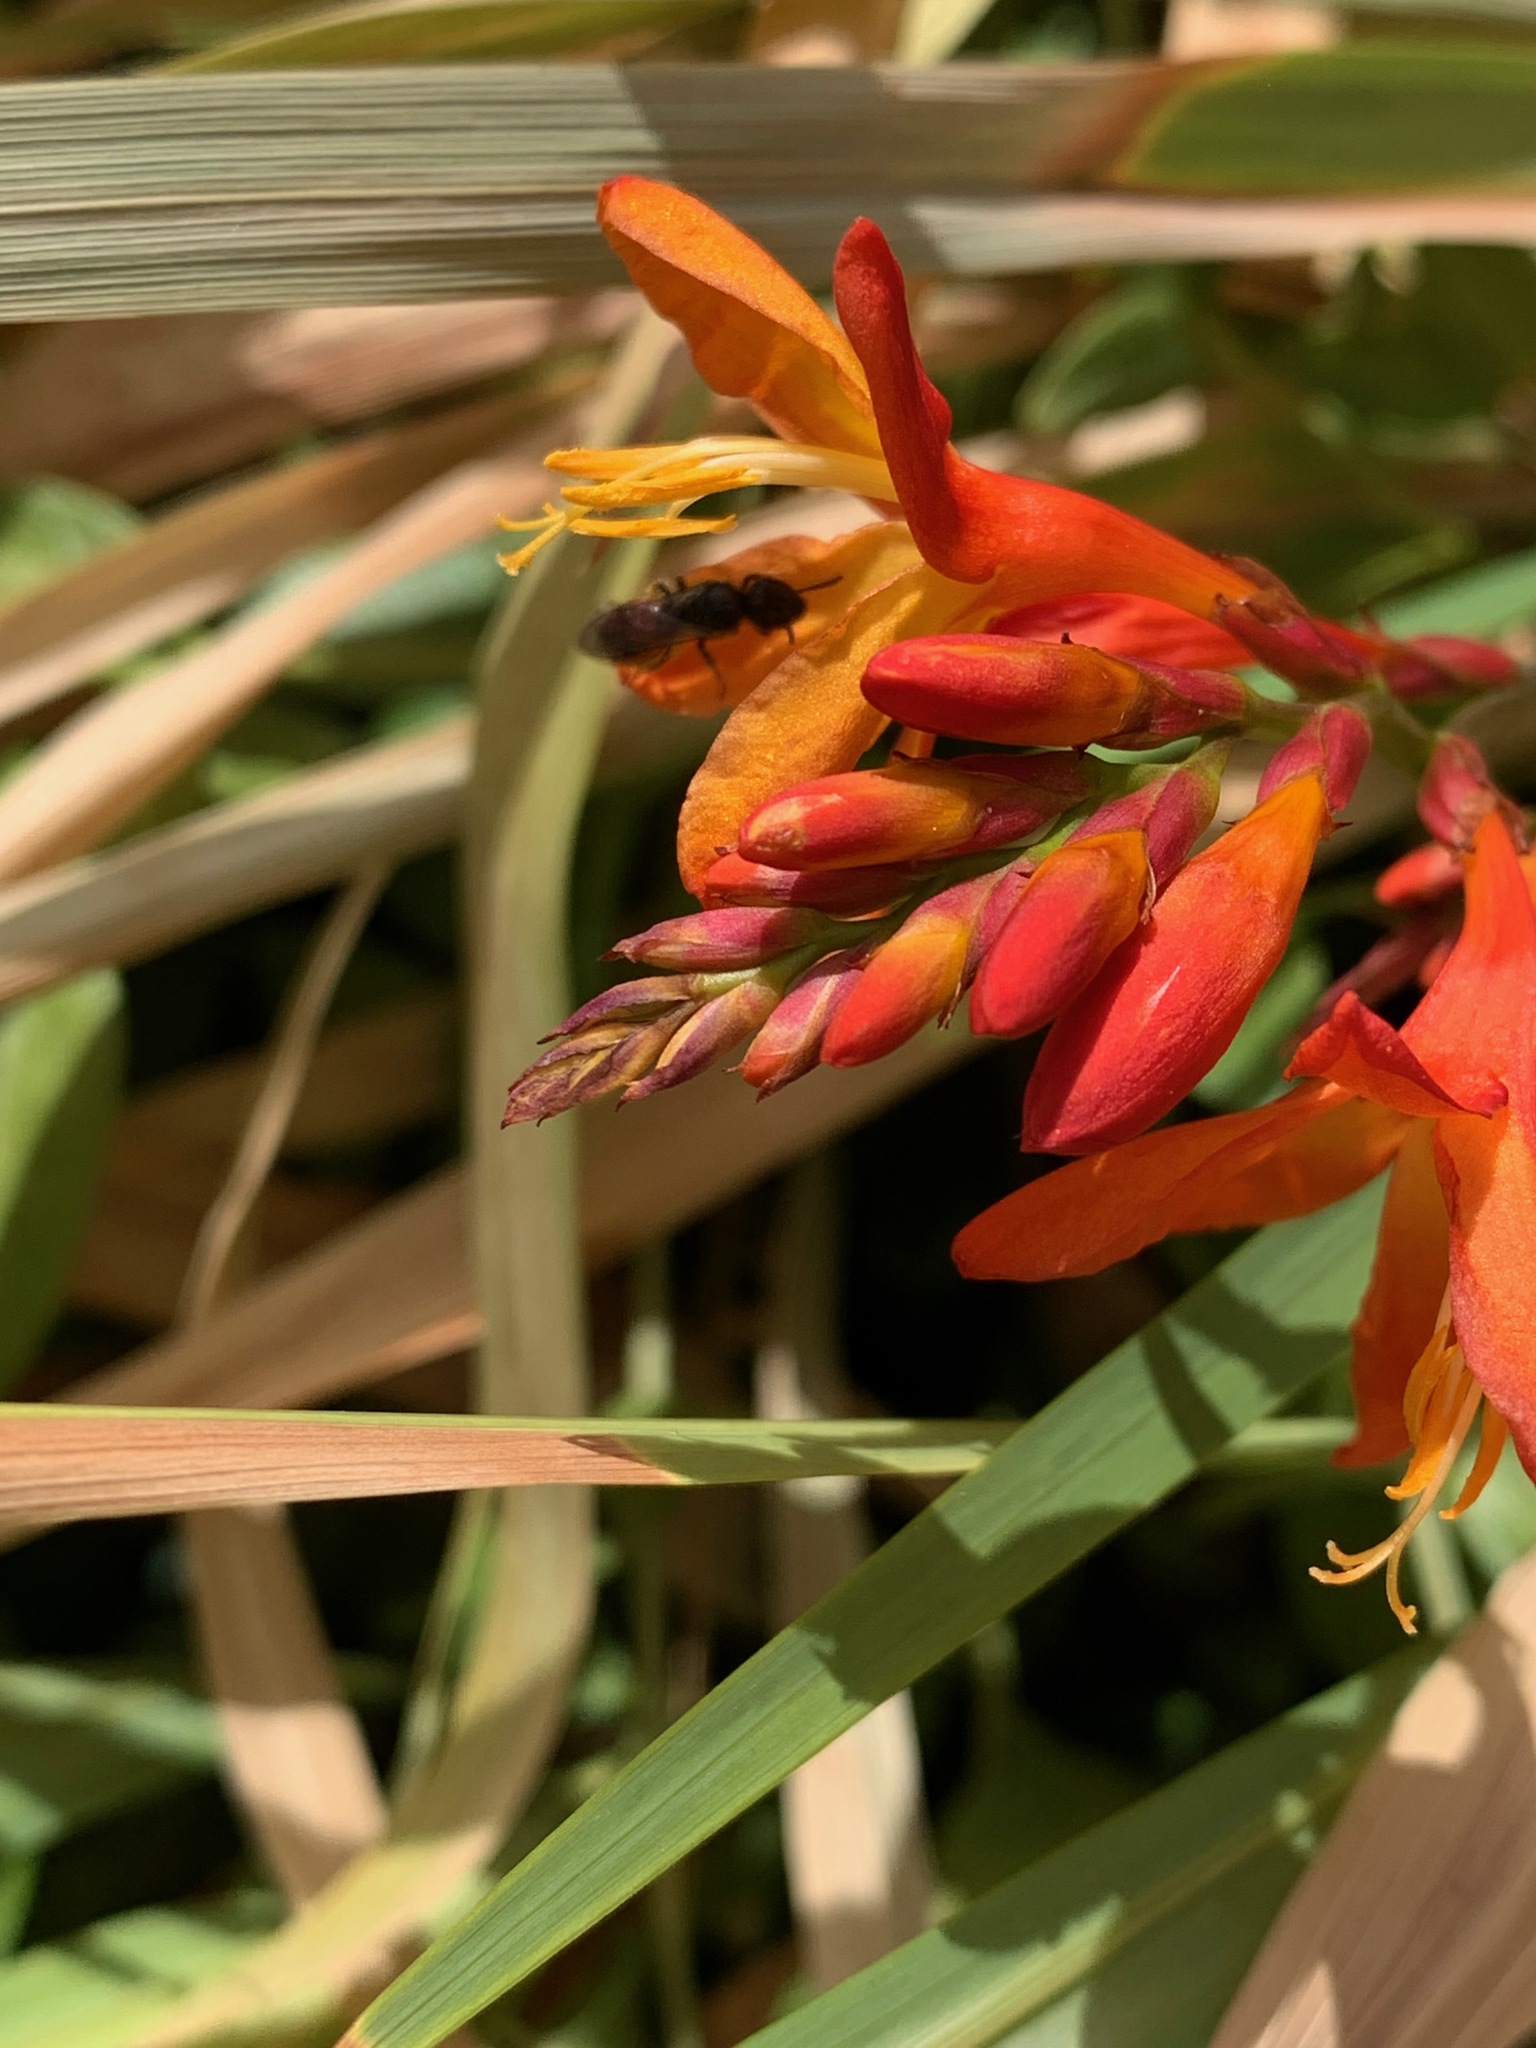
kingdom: Animalia
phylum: Arthropoda
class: Insecta
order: Hymenoptera
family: Halictidae
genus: Lasioglossum
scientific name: Lasioglossum ovaliceps
